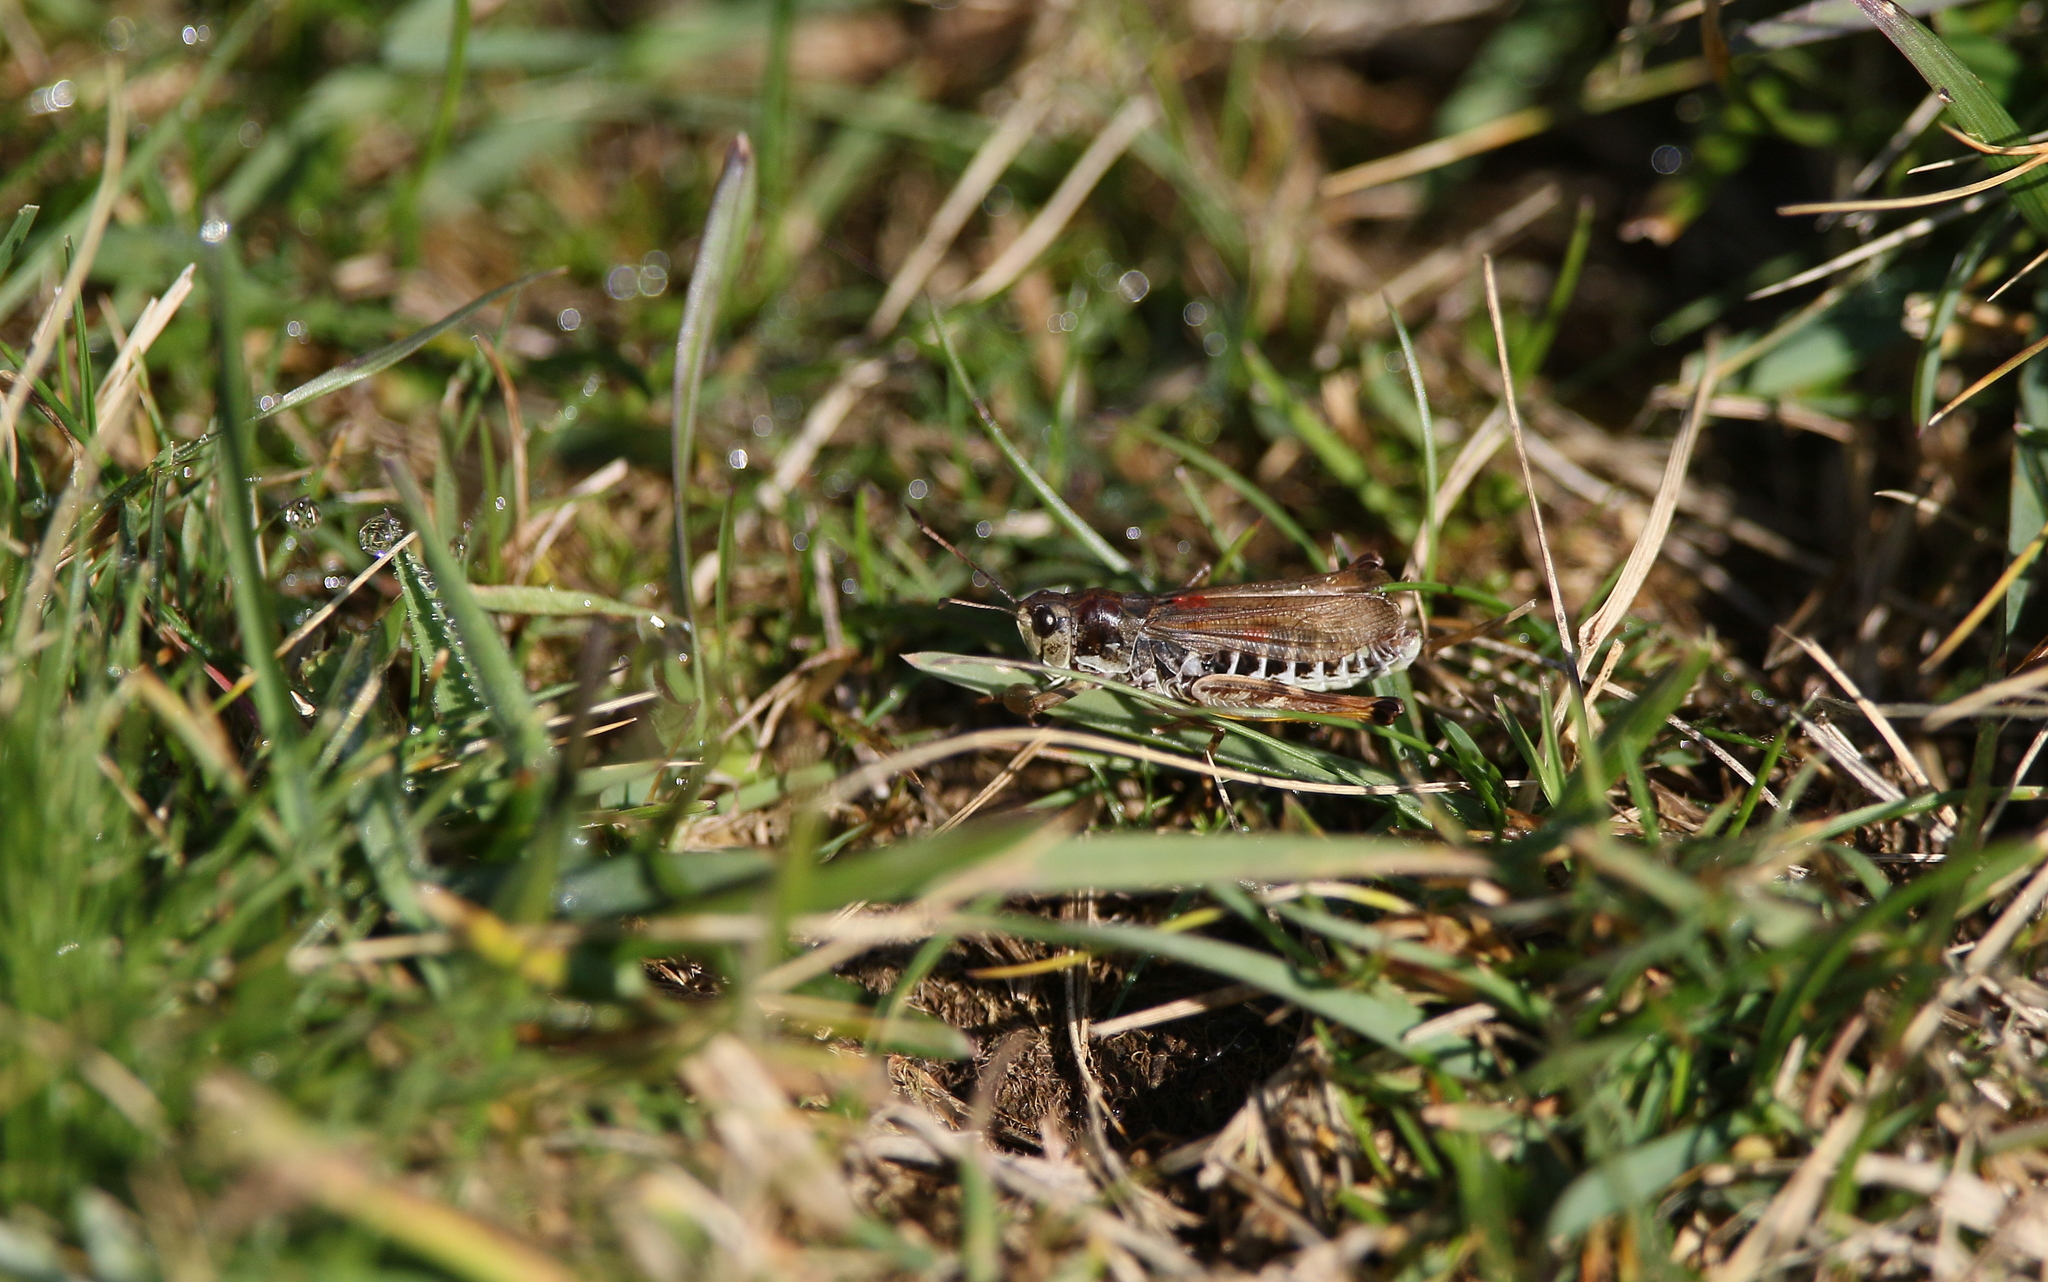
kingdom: Animalia
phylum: Arthropoda
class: Insecta
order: Orthoptera
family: Acrididae
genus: Gomphocerus
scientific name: Gomphocerus sibiricus
